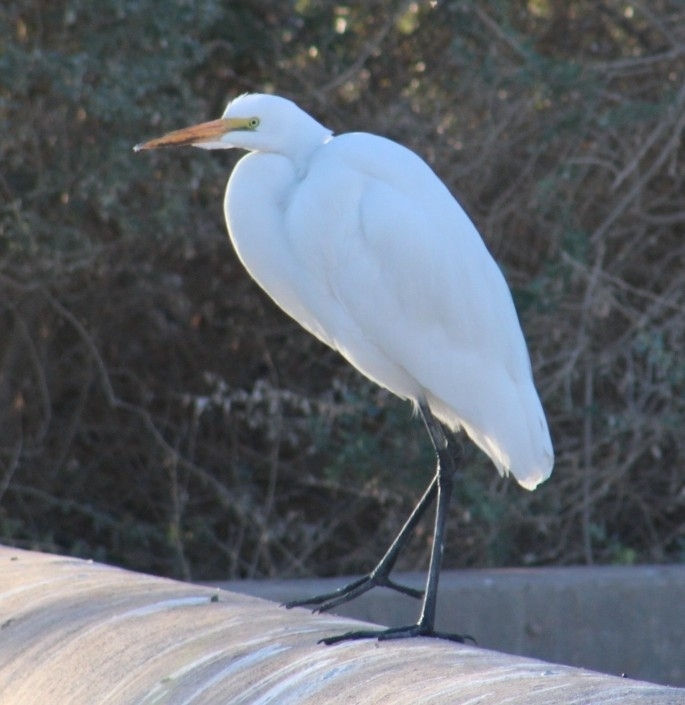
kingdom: Animalia
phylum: Chordata
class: Aves
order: Pelecaniformes
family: Ardeidae
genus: Ardea
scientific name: Ardea alba
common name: Great egret
